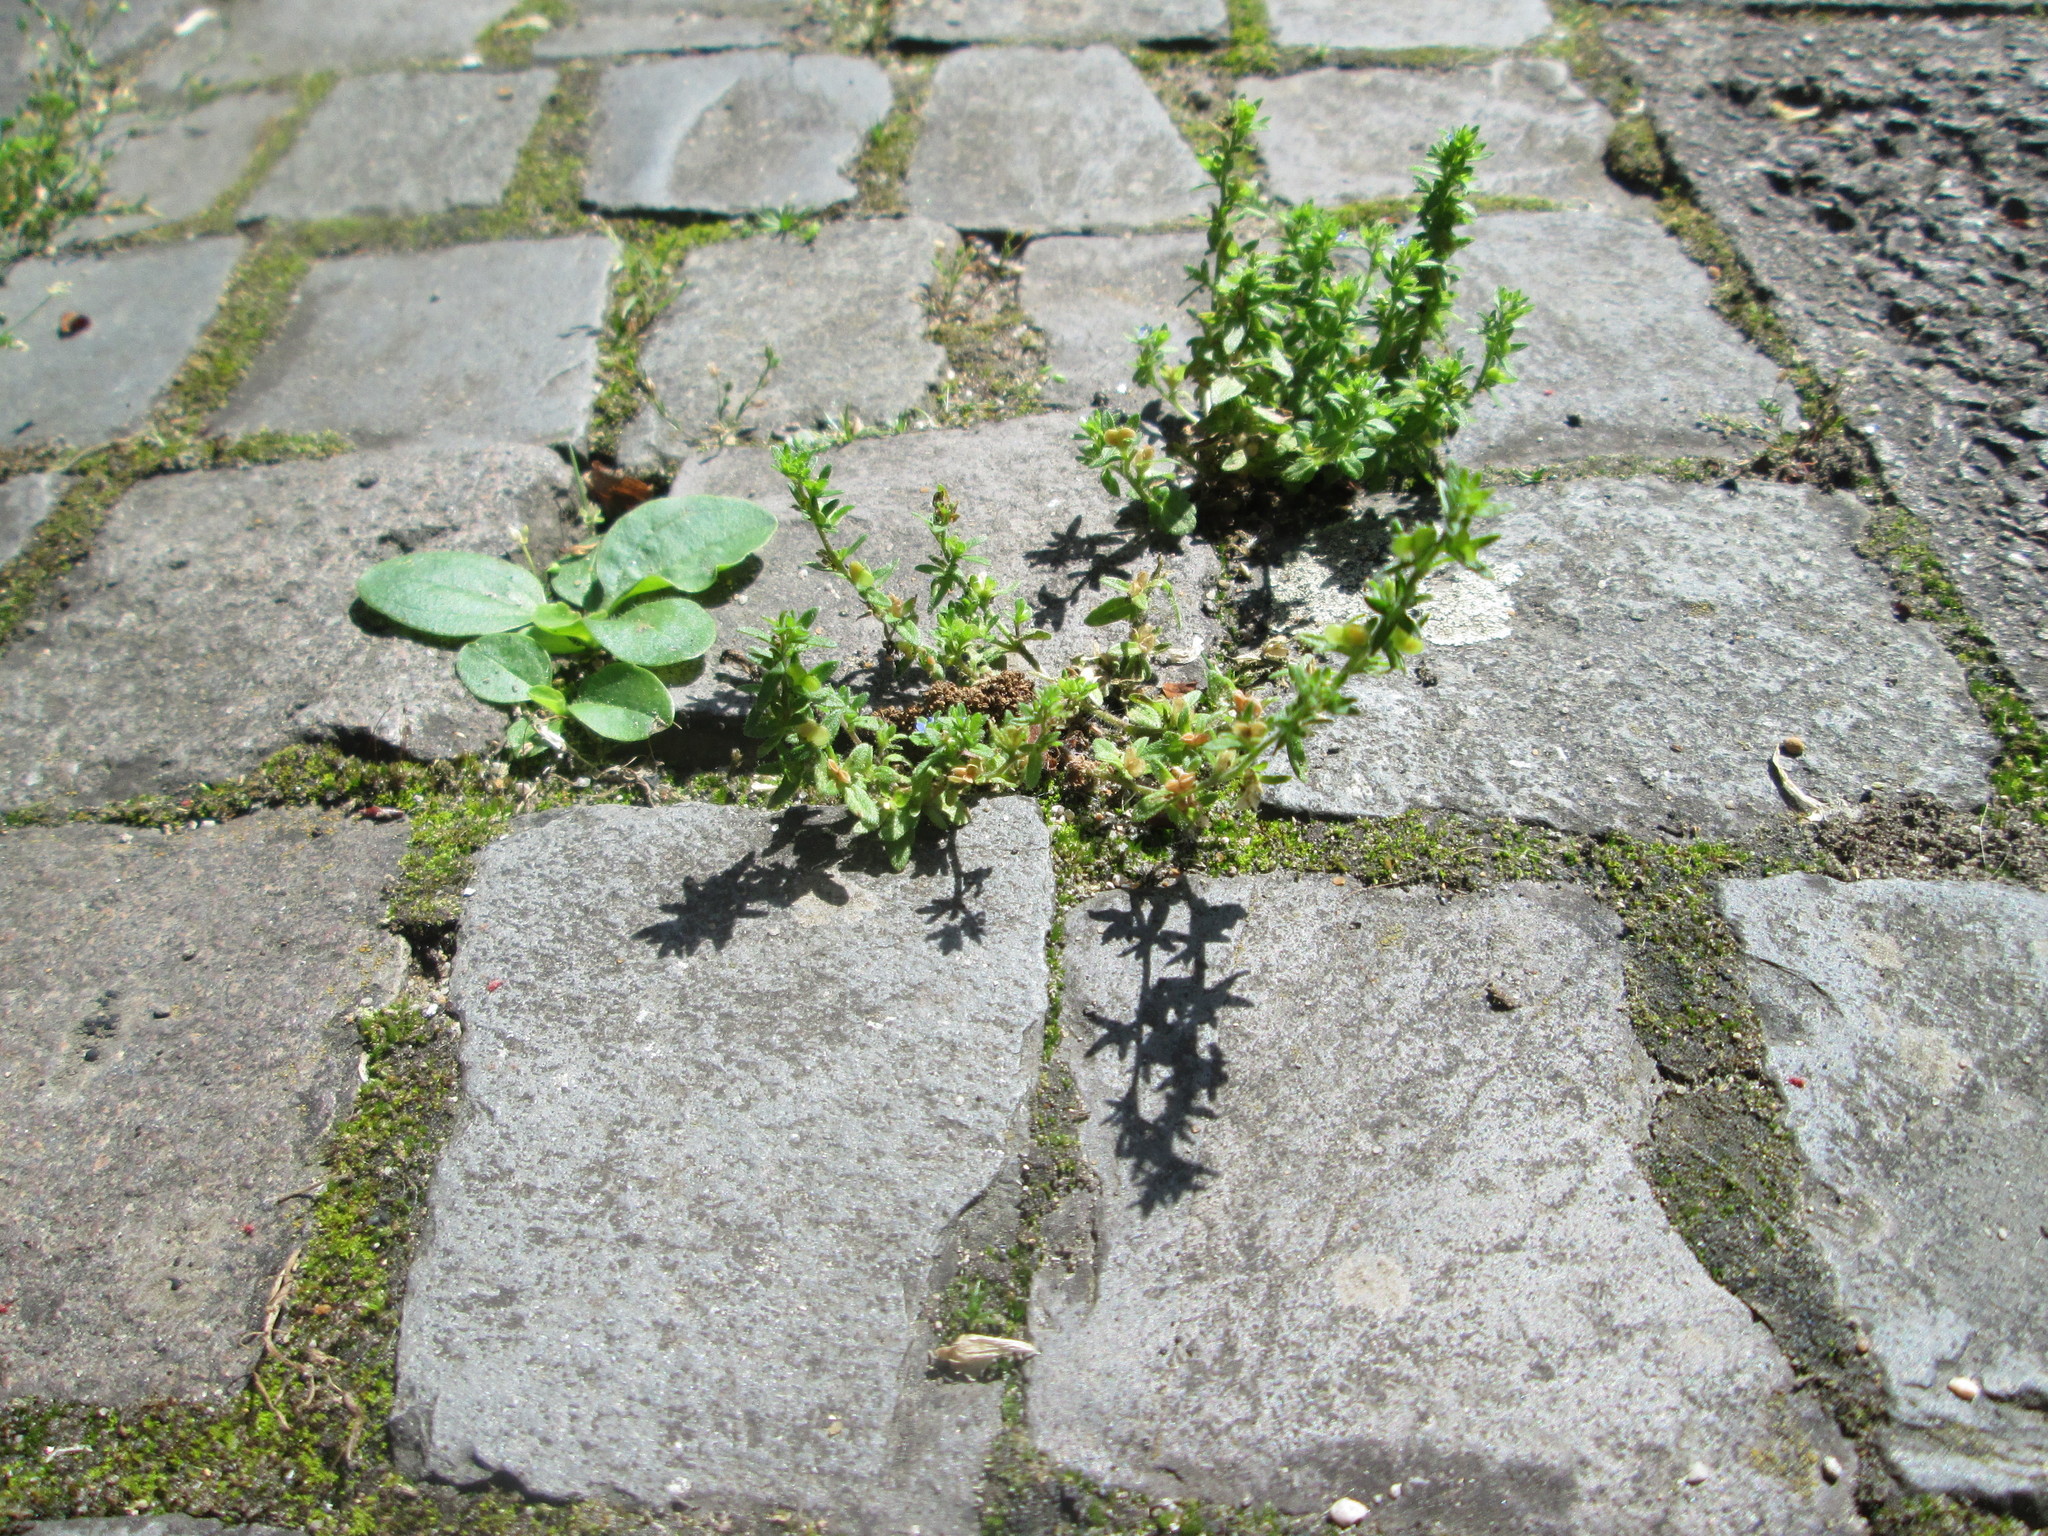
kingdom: Plantae
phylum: Tracheophyta
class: Magnoliopsida
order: Lamiales
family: Plantaginaceae
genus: Veronica
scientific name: Veronica arvensis
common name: Corn speedwell
